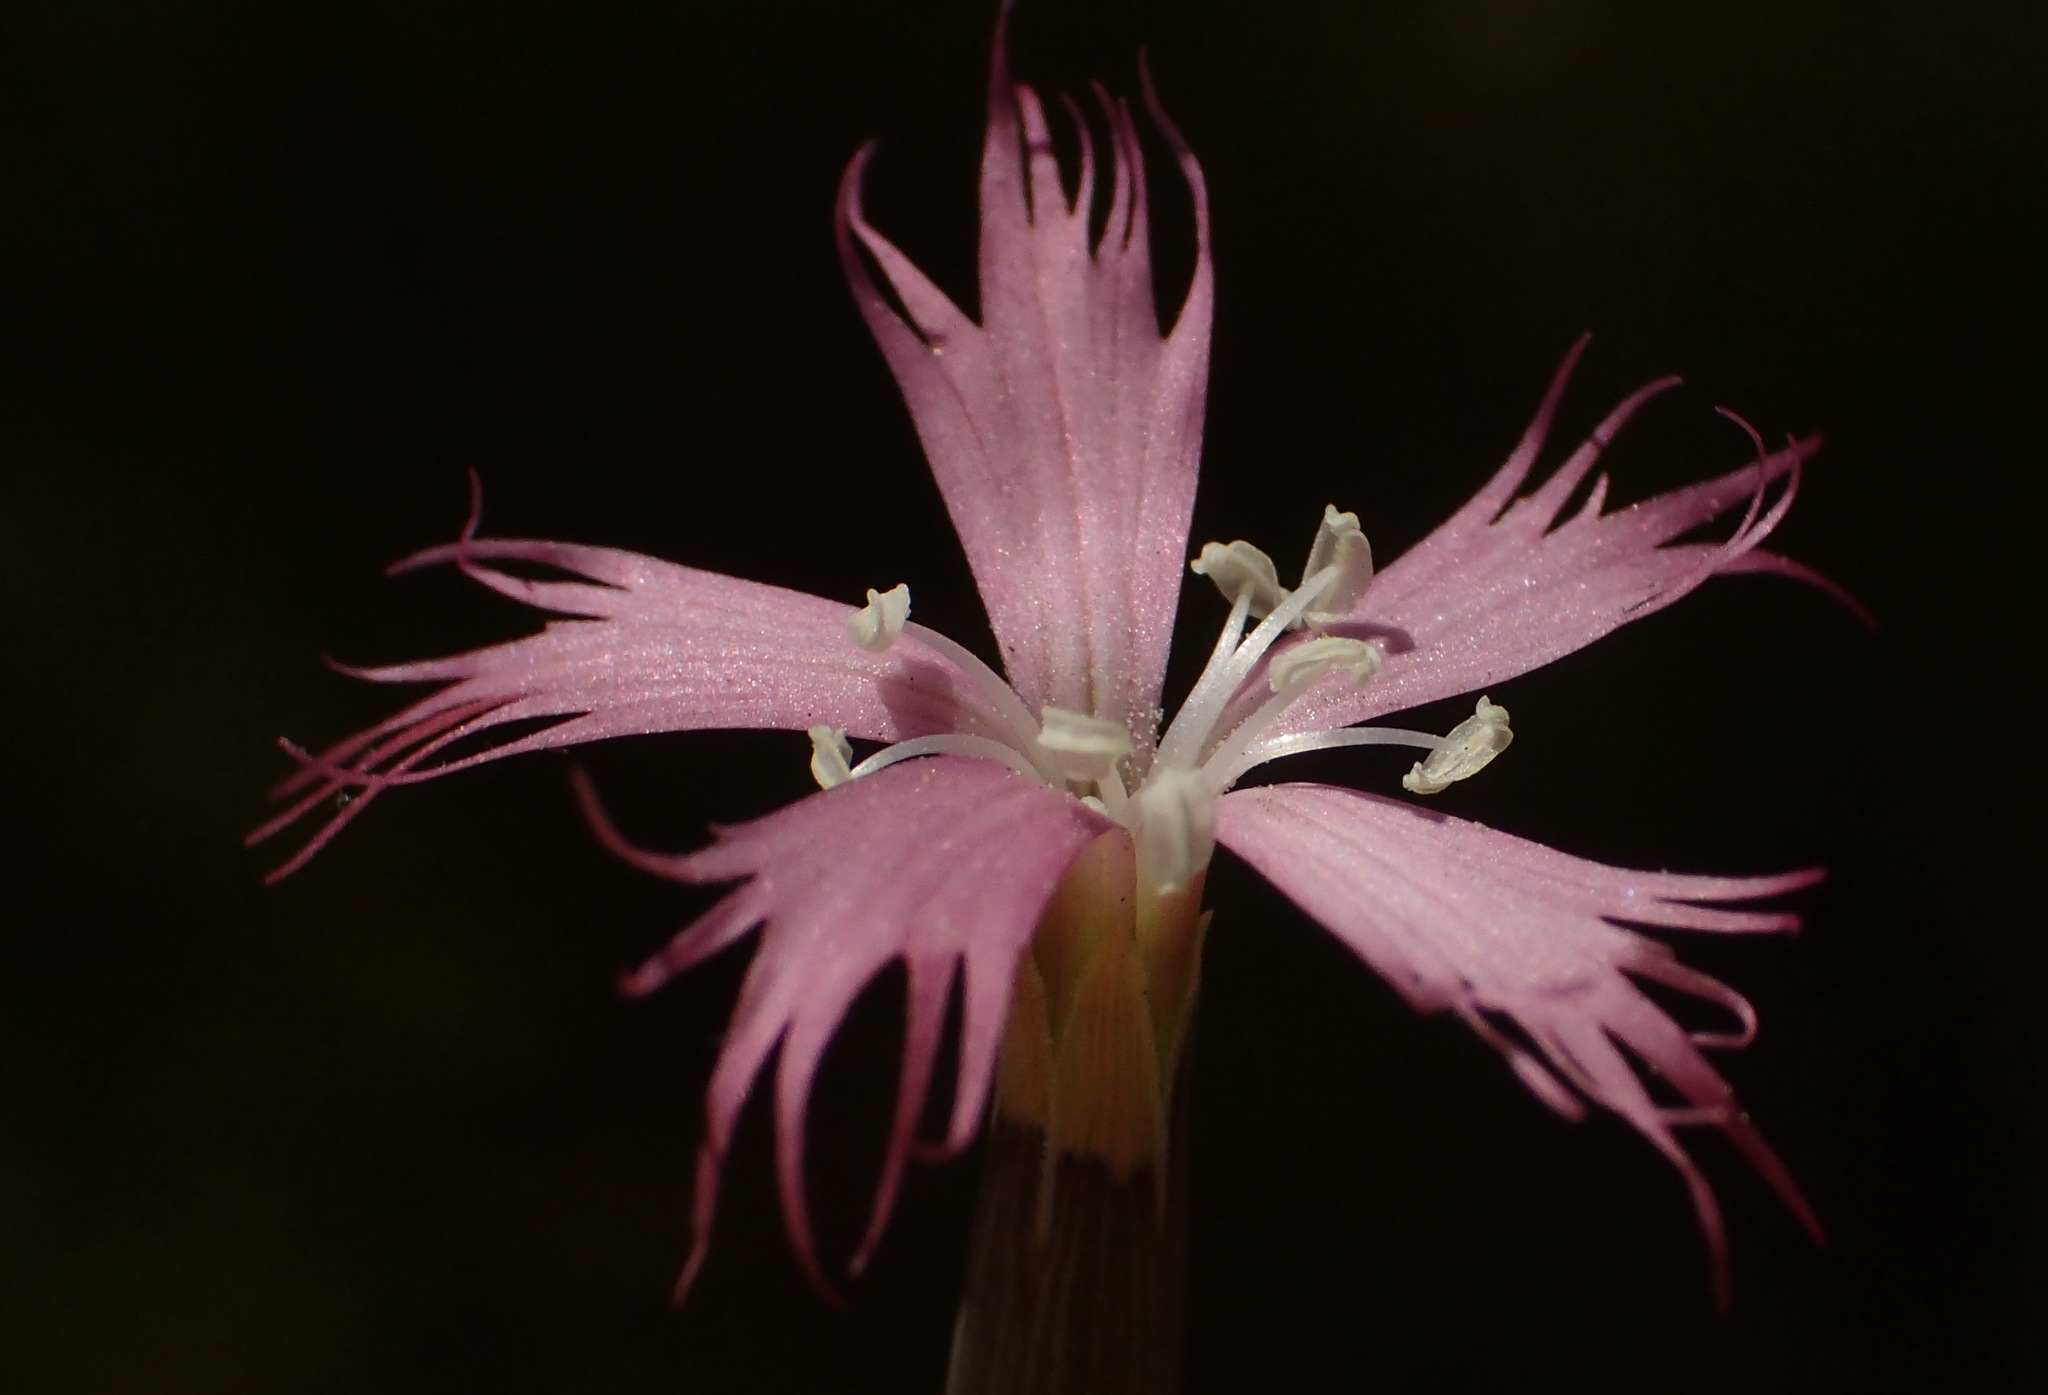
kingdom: Plantae
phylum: Tracheophyta
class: Magnoliopsida
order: Caryophyllales
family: Caryophyllaceae
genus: Dianthus
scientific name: Dianthus bolusii
